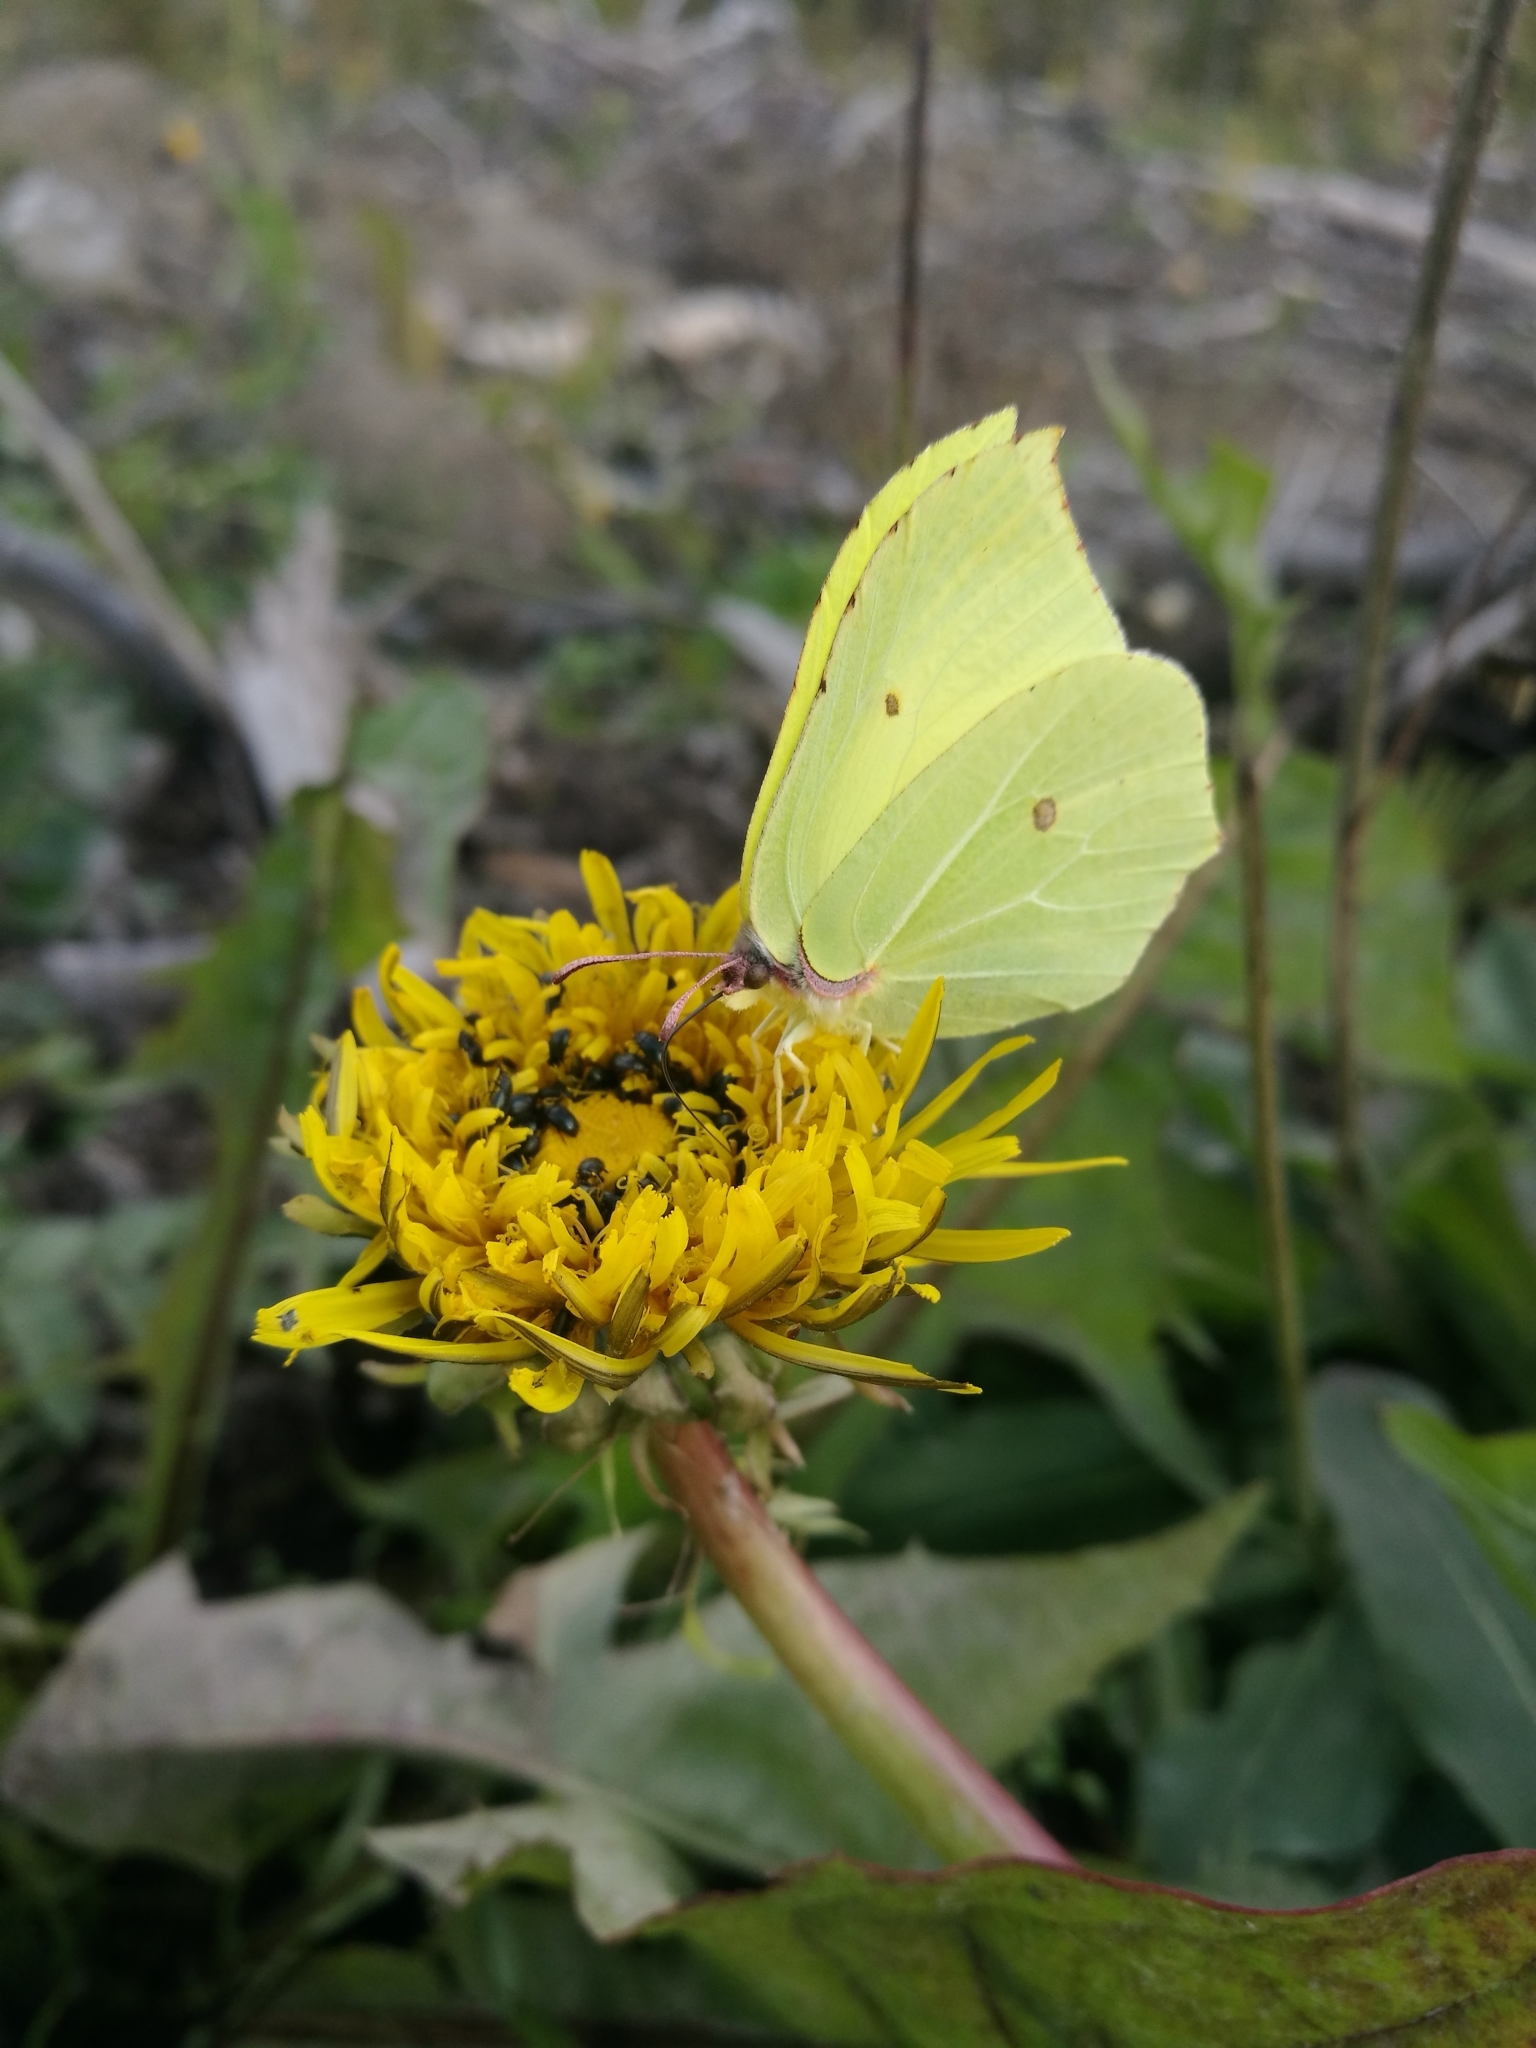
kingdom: Animalia
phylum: Arthropoda
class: Insecta
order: Lepidoptera
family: Pieridae
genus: Gonepteryx
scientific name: Gonepteryx rhamni
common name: Brimstone
